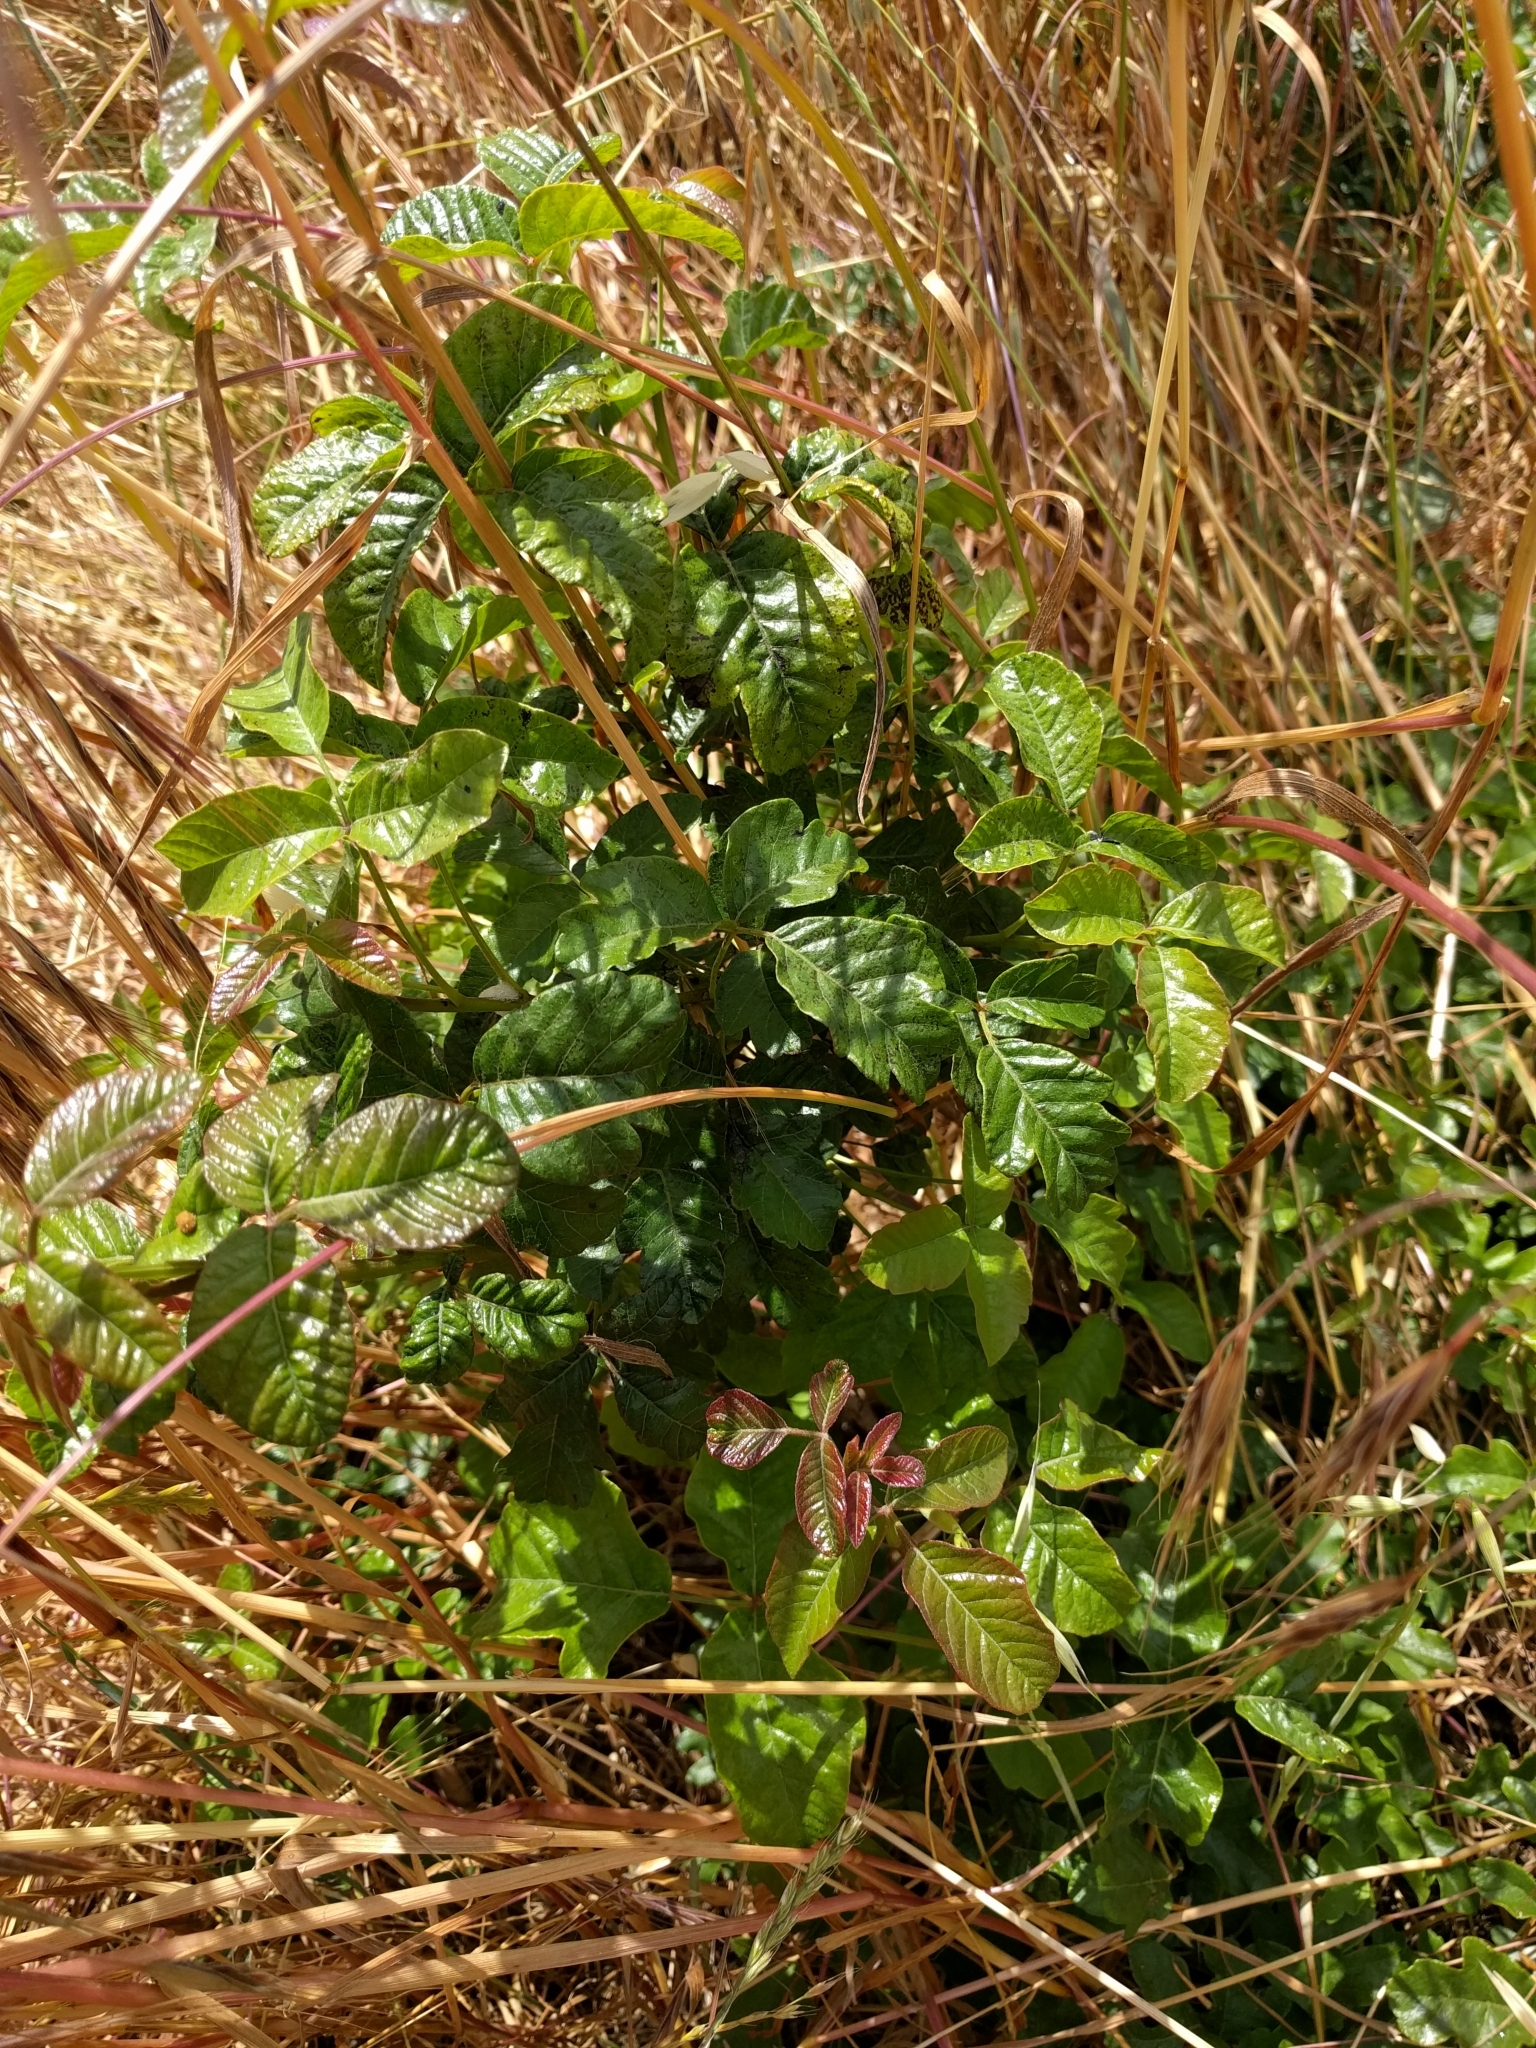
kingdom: Plantae
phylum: Tracheophyta
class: Magnoliopsida
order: Sapindales
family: Anacardiaceae
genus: Toxicodendron
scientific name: Toxicodendron diversilobum
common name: Pacific poison-oak
